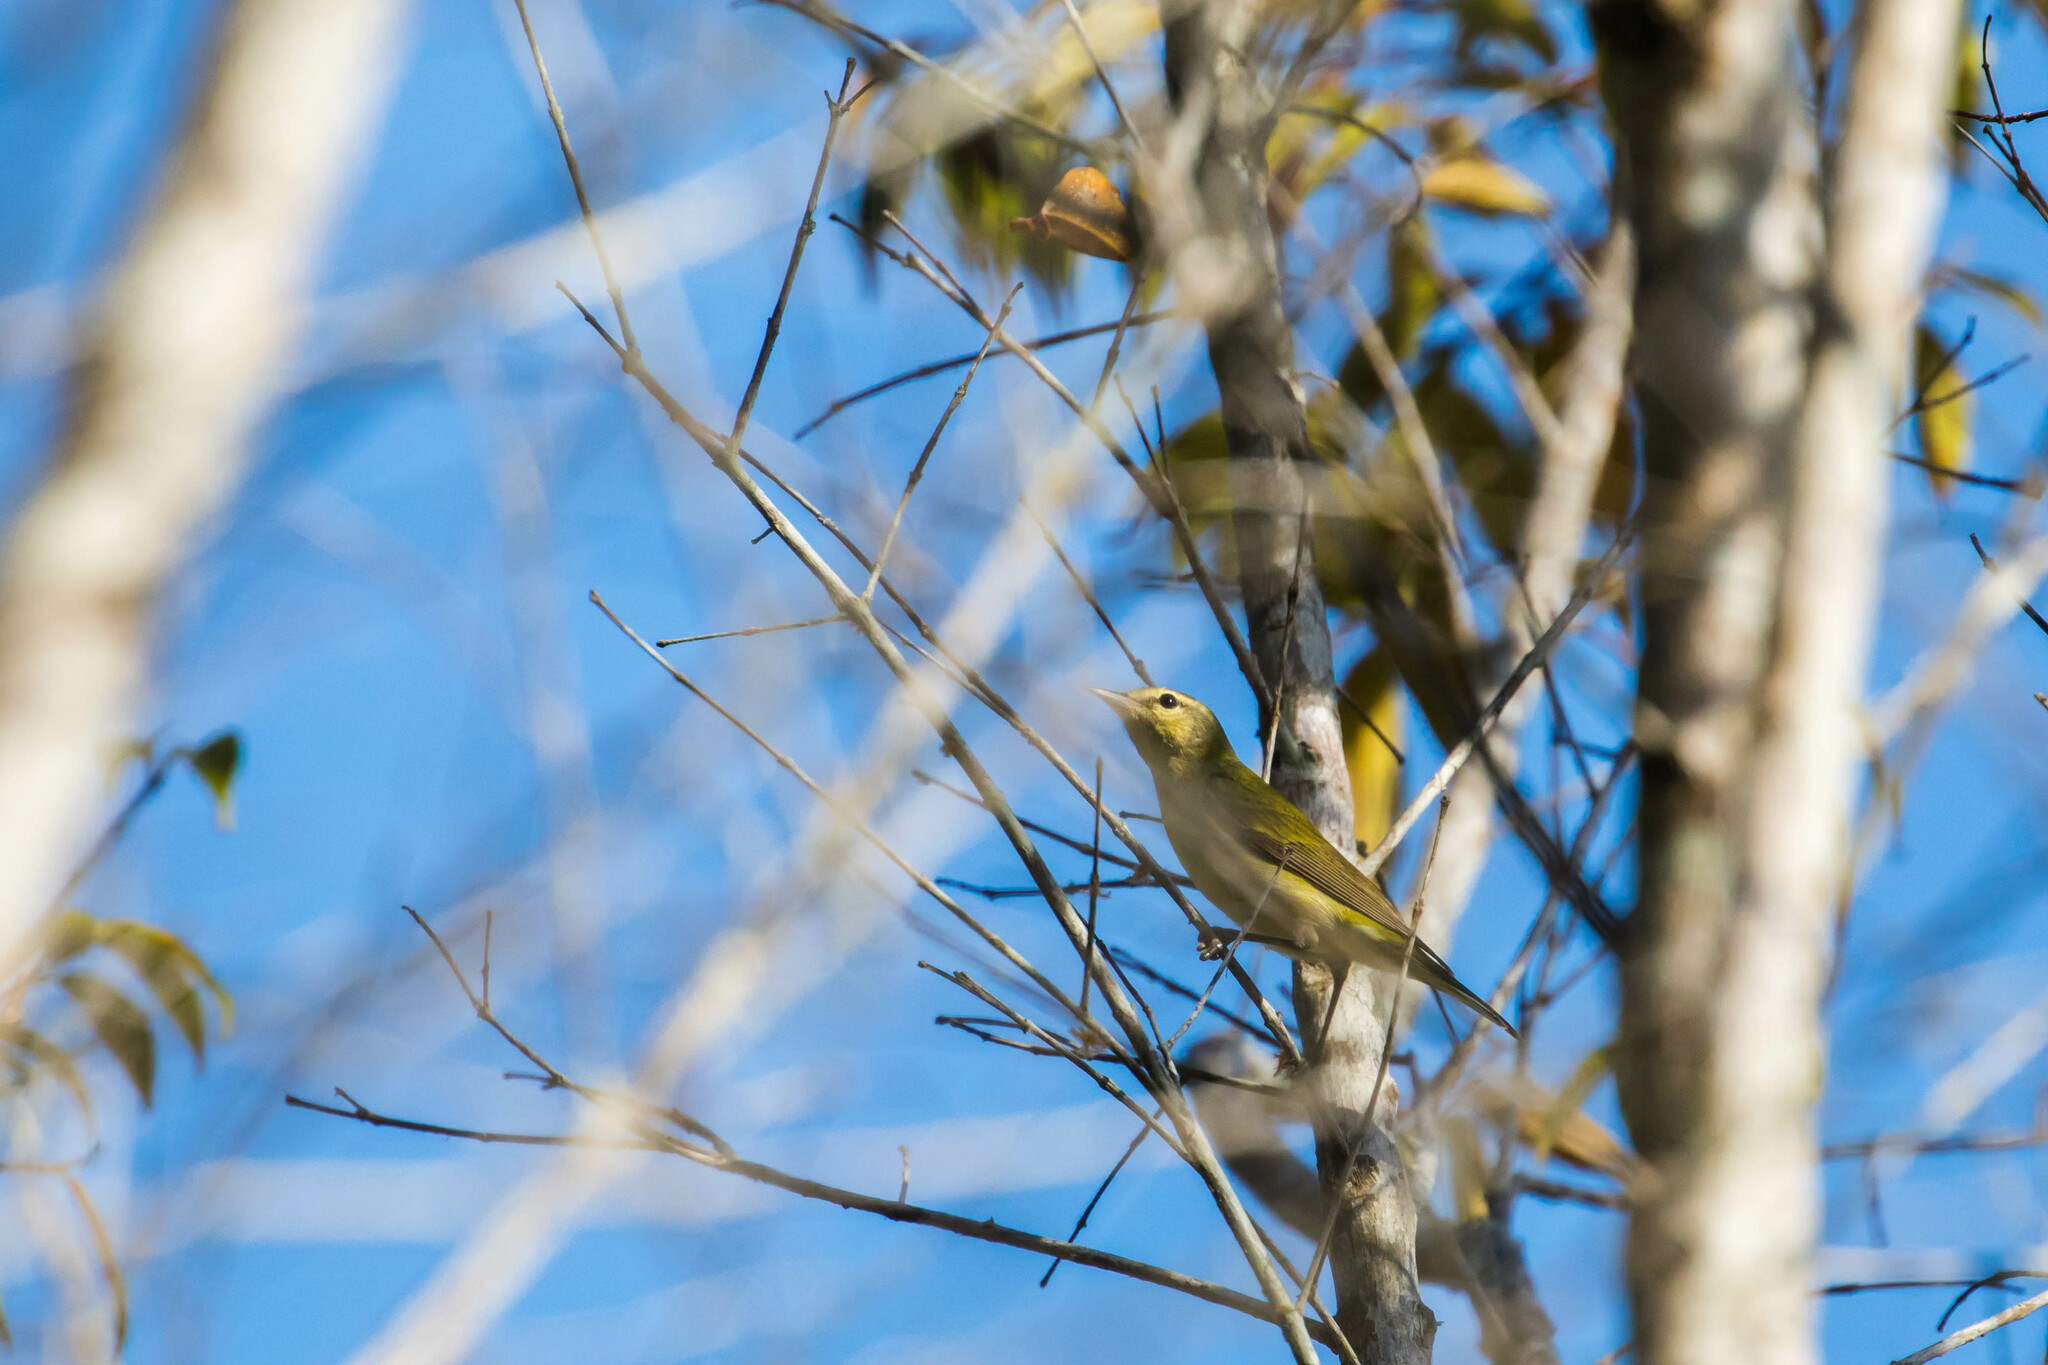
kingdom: Animalia
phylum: Chordata
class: Aves
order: Passeriformes
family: Parulidae
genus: Leiothlypis
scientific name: Leiothlypis peregrina
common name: Tennessee warbler
